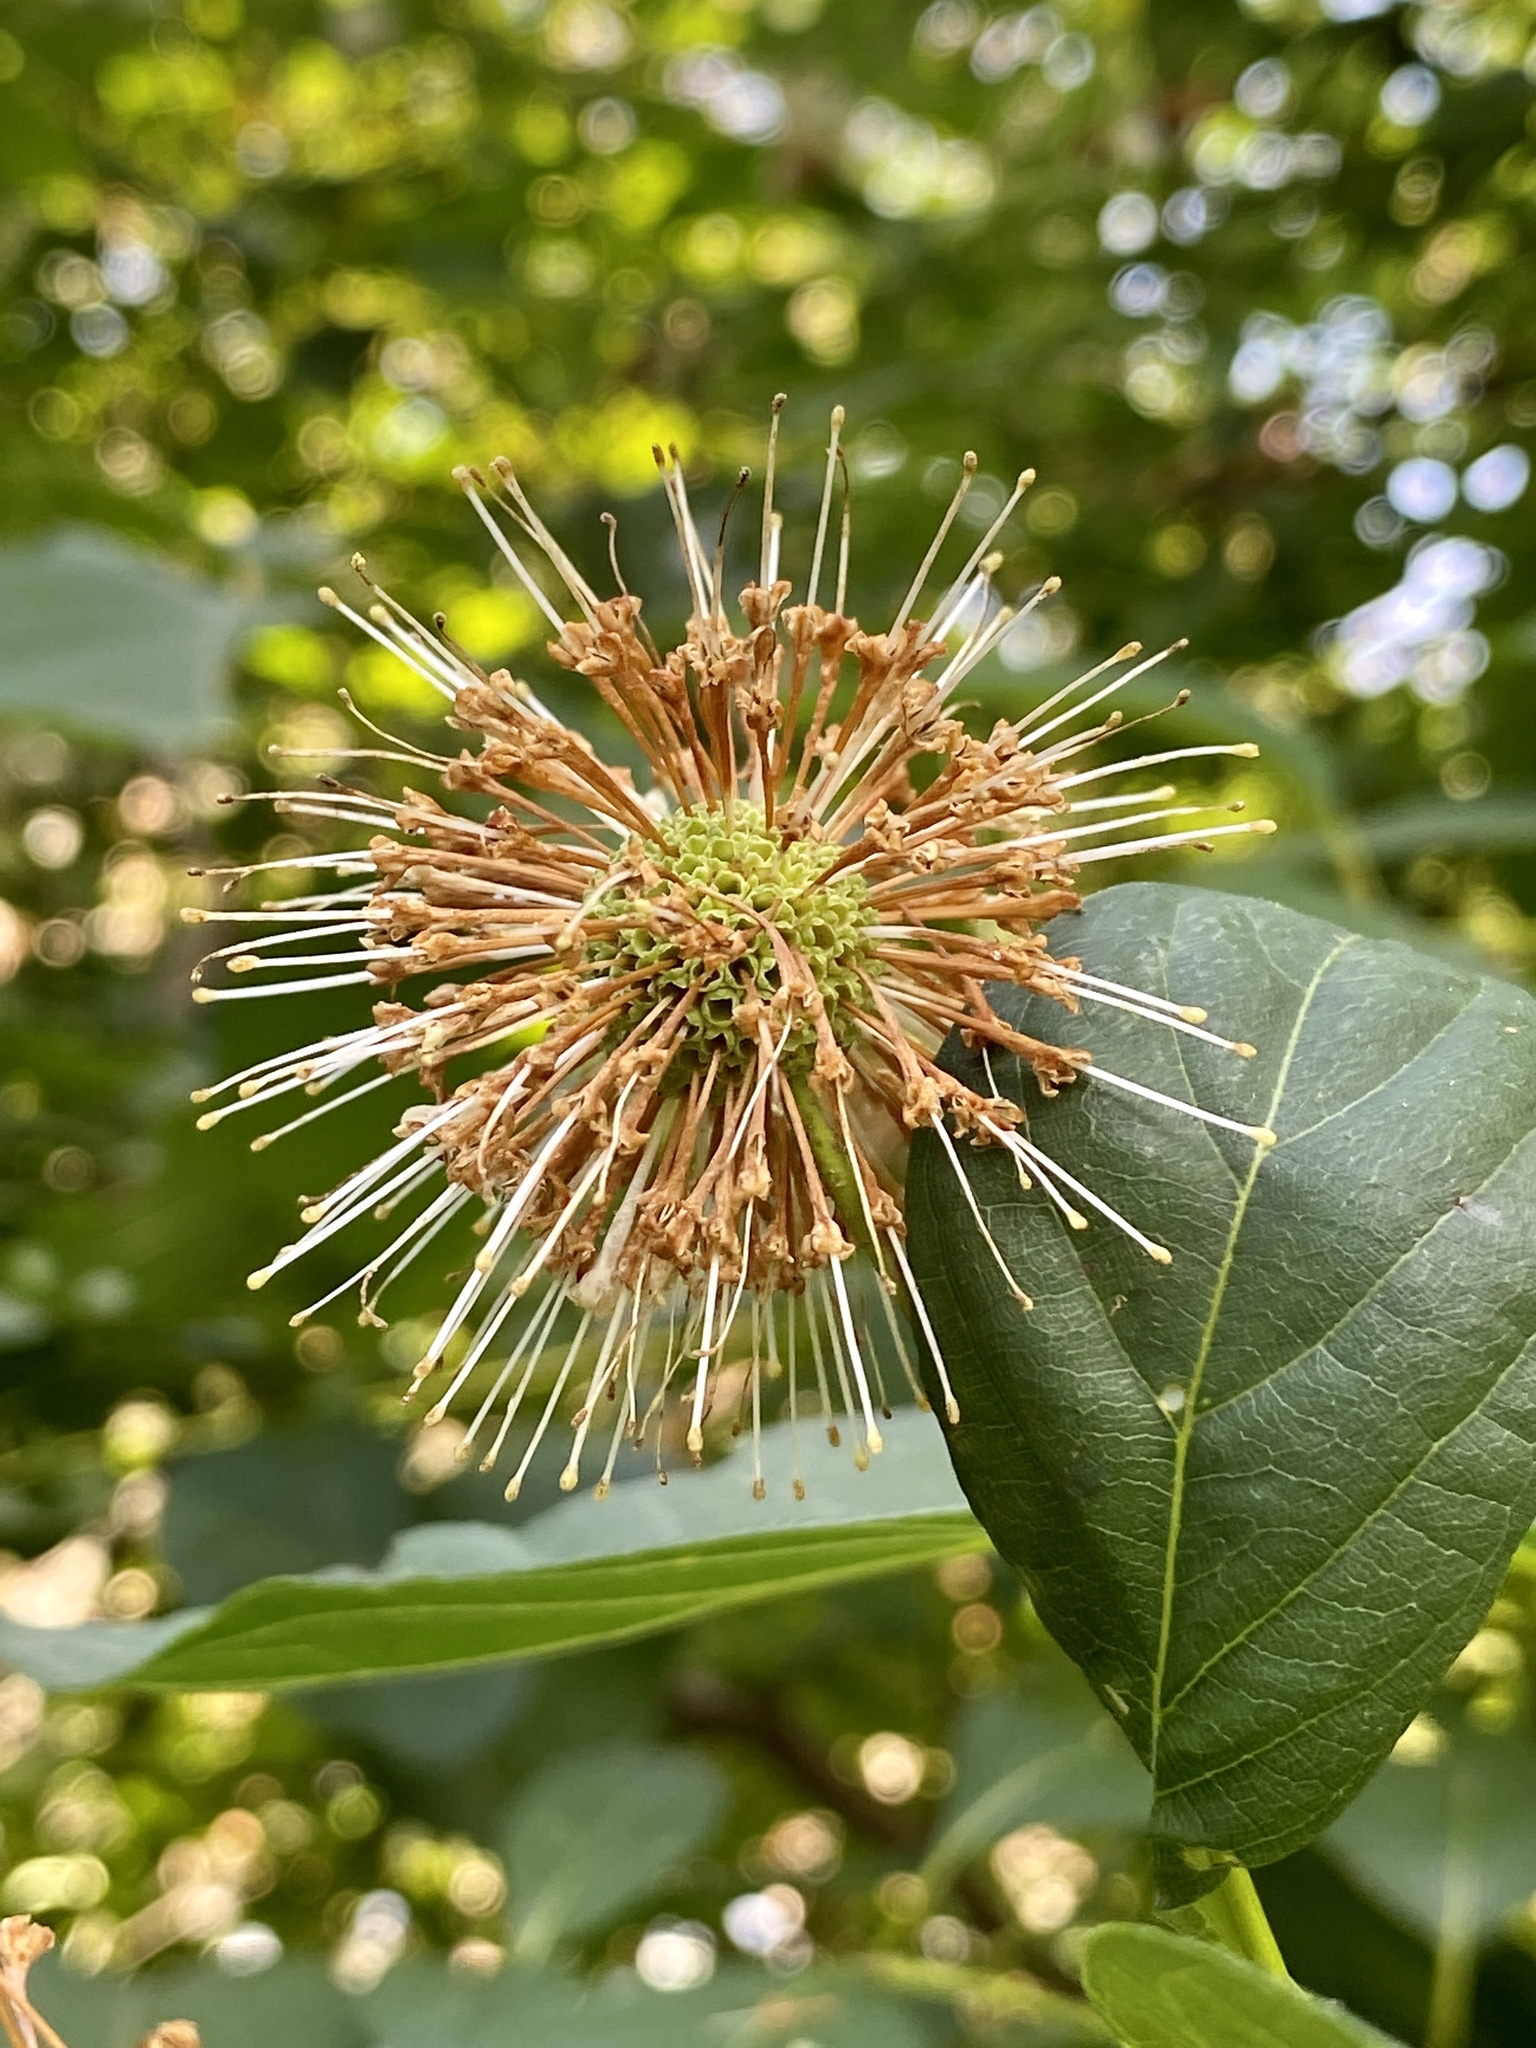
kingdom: Plantae
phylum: Tracheophyta
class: Magnoliopsida
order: Gentianales
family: Rubiaceae
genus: Cephalanthus
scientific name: Cephalanthus occidentalis
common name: Button-willow
